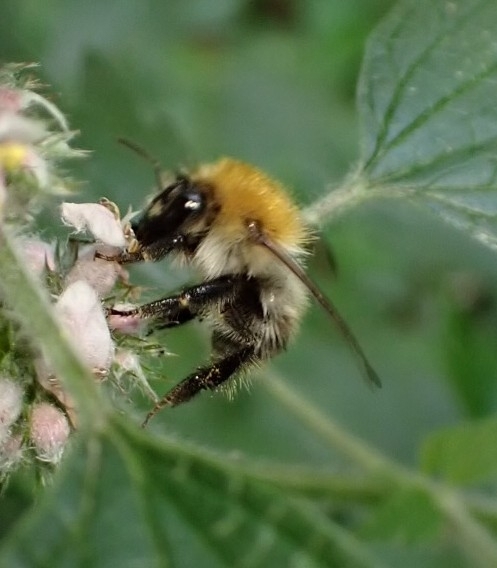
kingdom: Animalia
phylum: Arthropoda
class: Insecta
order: Hymenoptera
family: Apidae
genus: Bombus
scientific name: Bombus pascuorum
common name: Common carder bee
